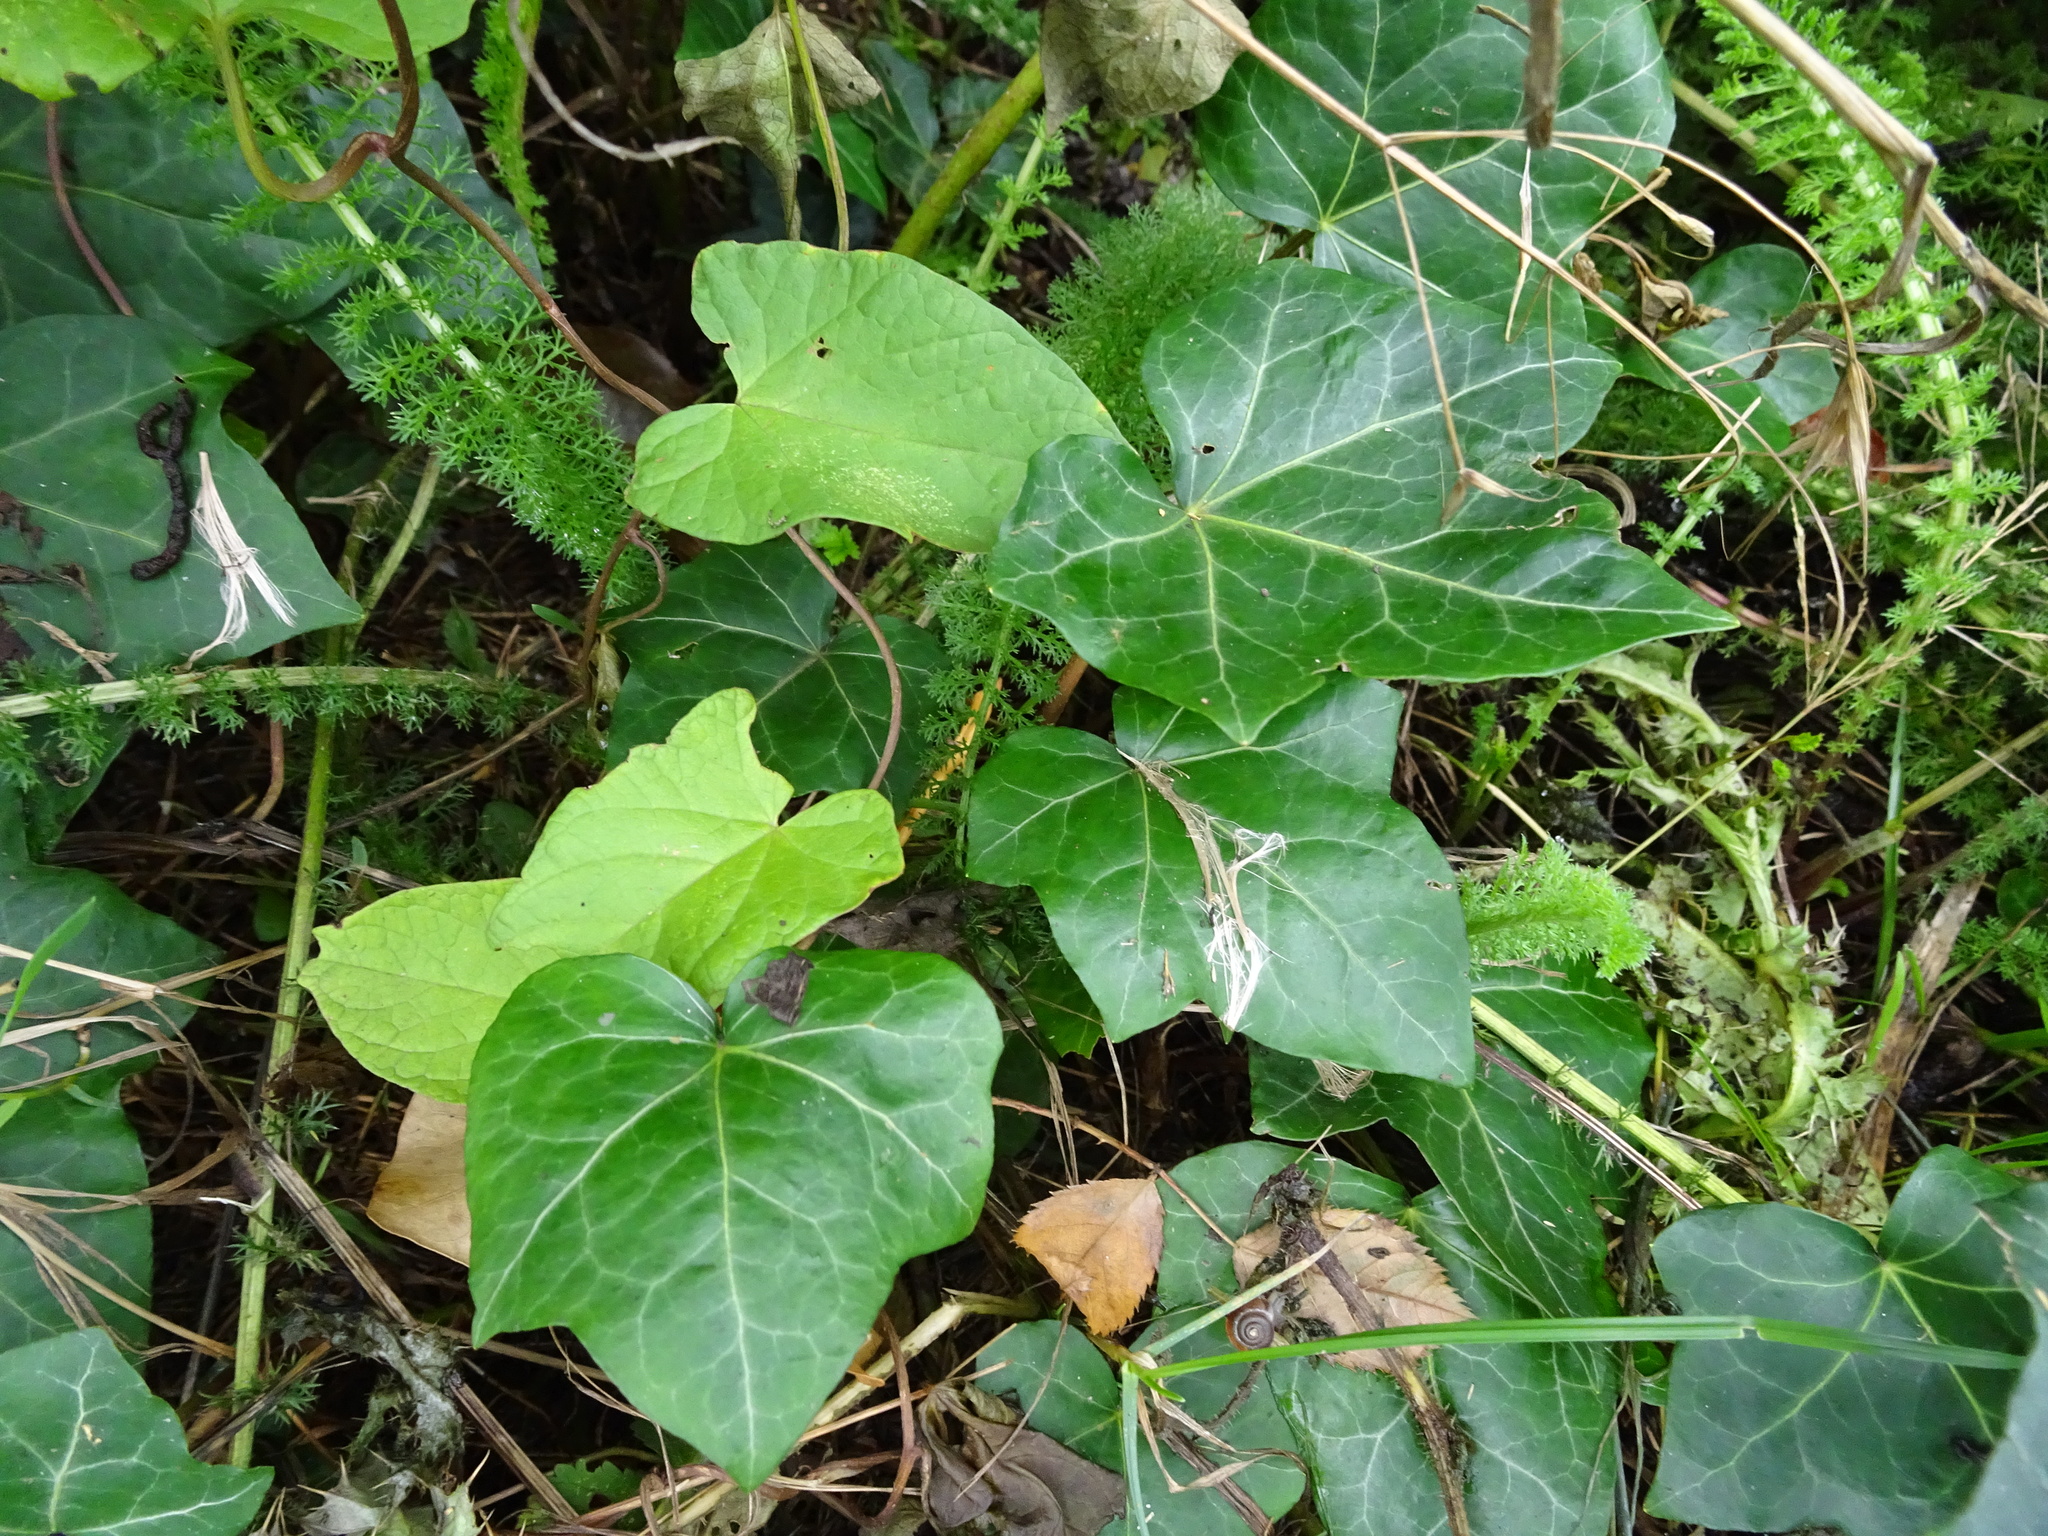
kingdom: Plantae
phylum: Tracheophyta
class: Magnoliopsida
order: Apiales
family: Araliaceae
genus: Hedera
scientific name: Hedera helix
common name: Ivy
